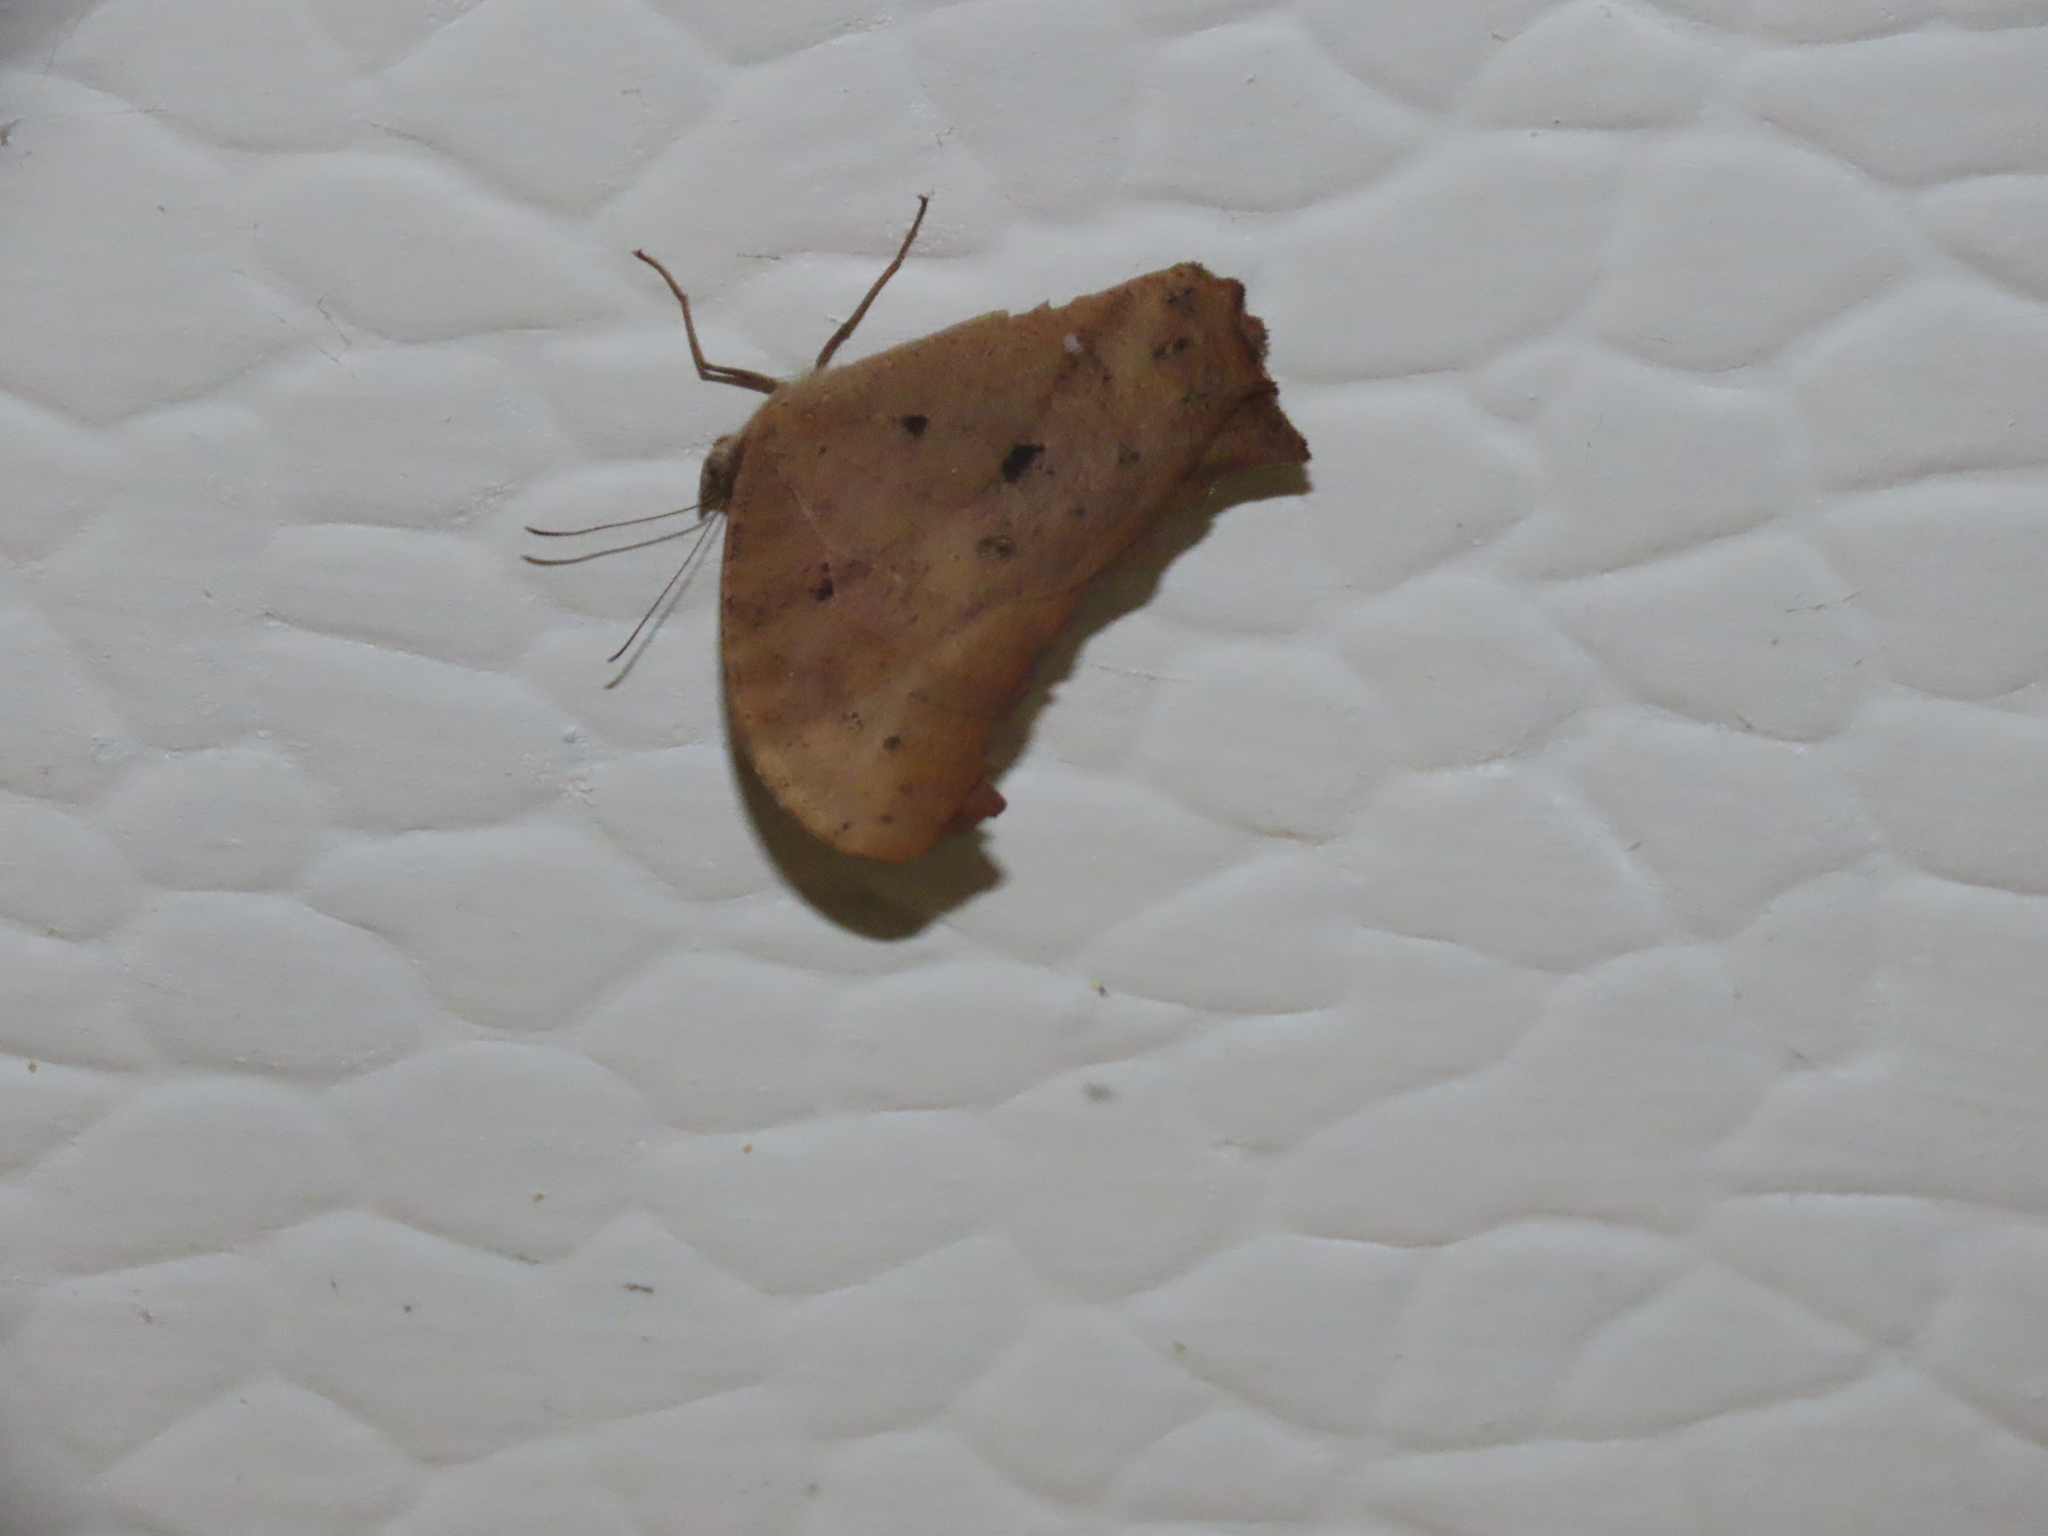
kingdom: Animalia
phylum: Arthropoda
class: Insecta
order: Lepidoptera
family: Nymphalidae
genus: Melanitis
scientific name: Melanitis leda
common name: Twilight brown
